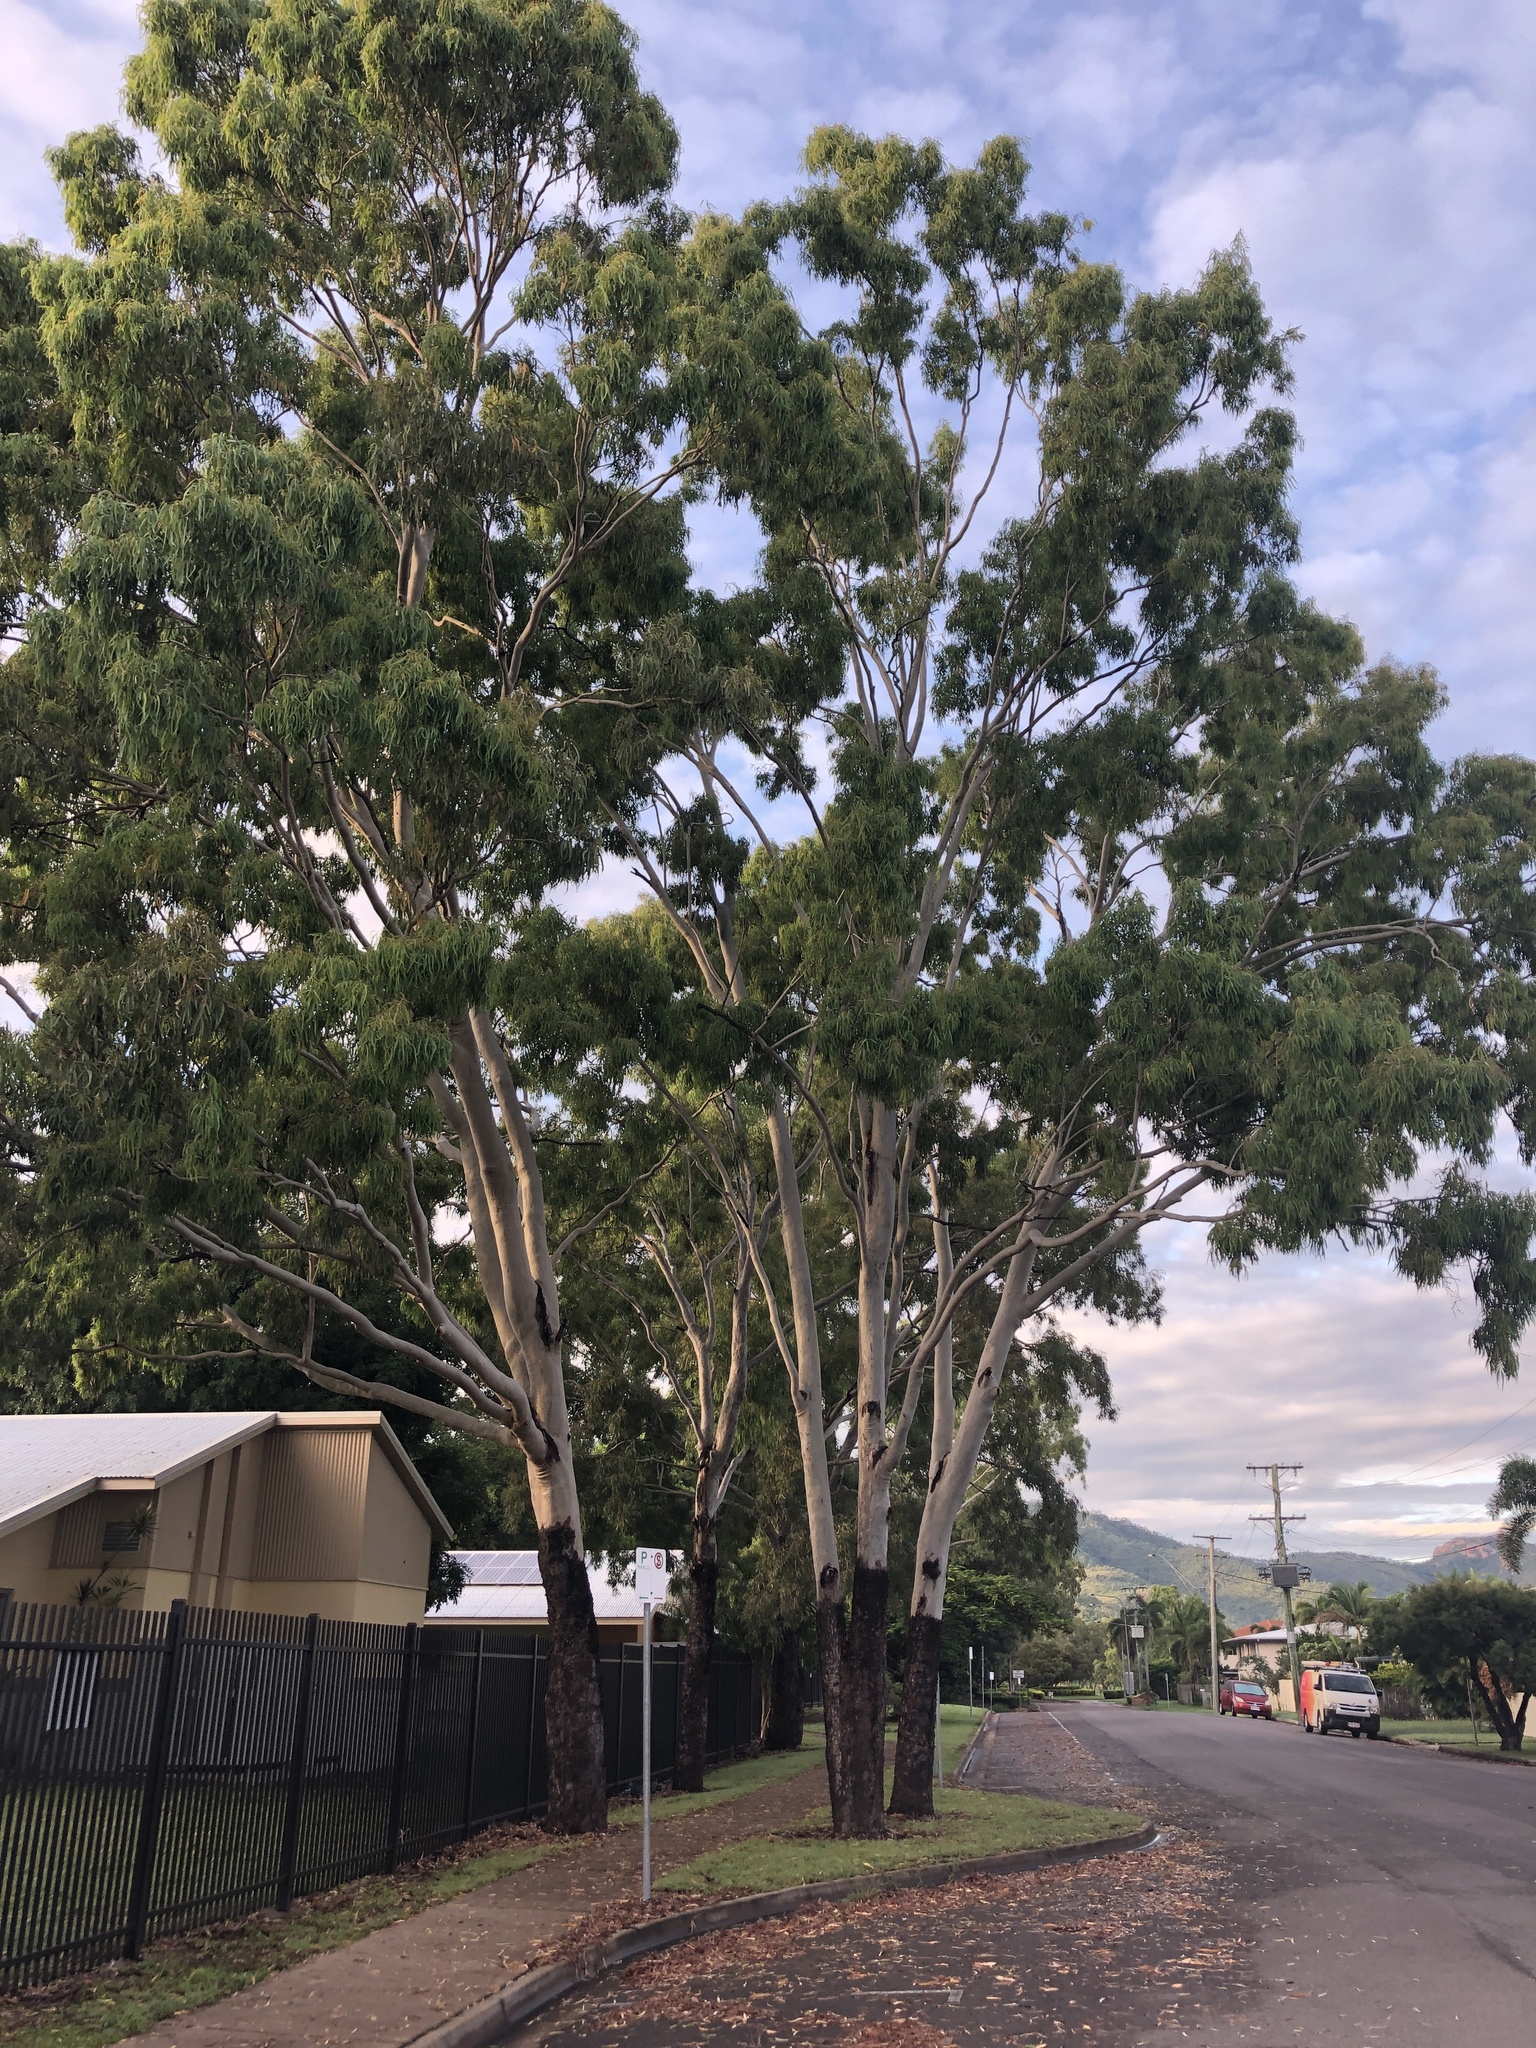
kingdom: Plantae
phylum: Tracheophyta
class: Magnoliopsida
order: Myrtales
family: Myrtaceae
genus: Corymbia
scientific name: Corymbia tessellaris
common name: Carbeen
